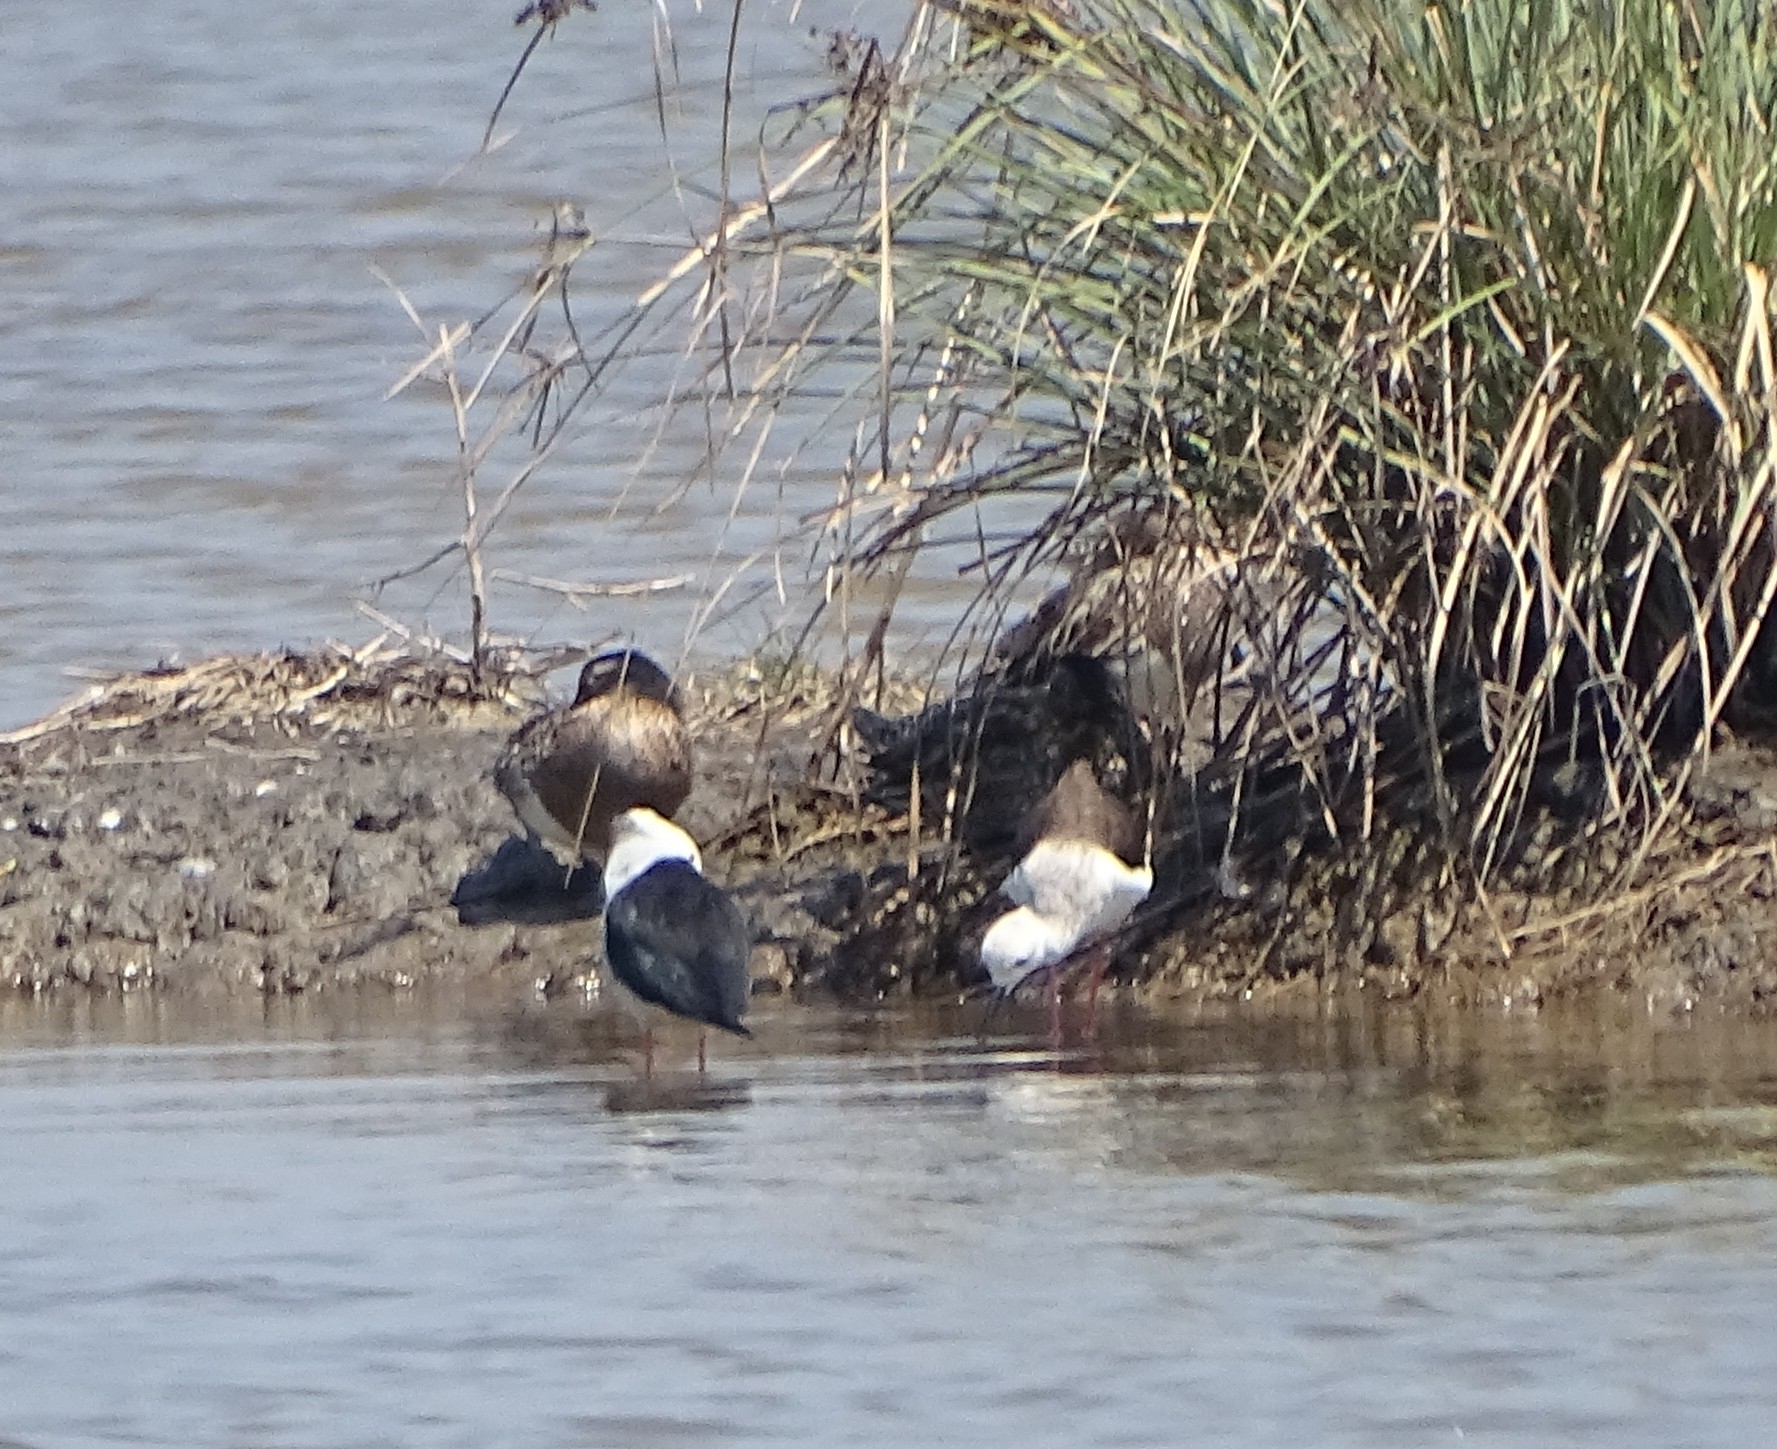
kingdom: Animalia
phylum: Chordata
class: Aves
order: Charadriiformes
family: Recurvirostridae
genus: Himantopus
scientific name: Himantopus himantopus
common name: Black-winged stilt
